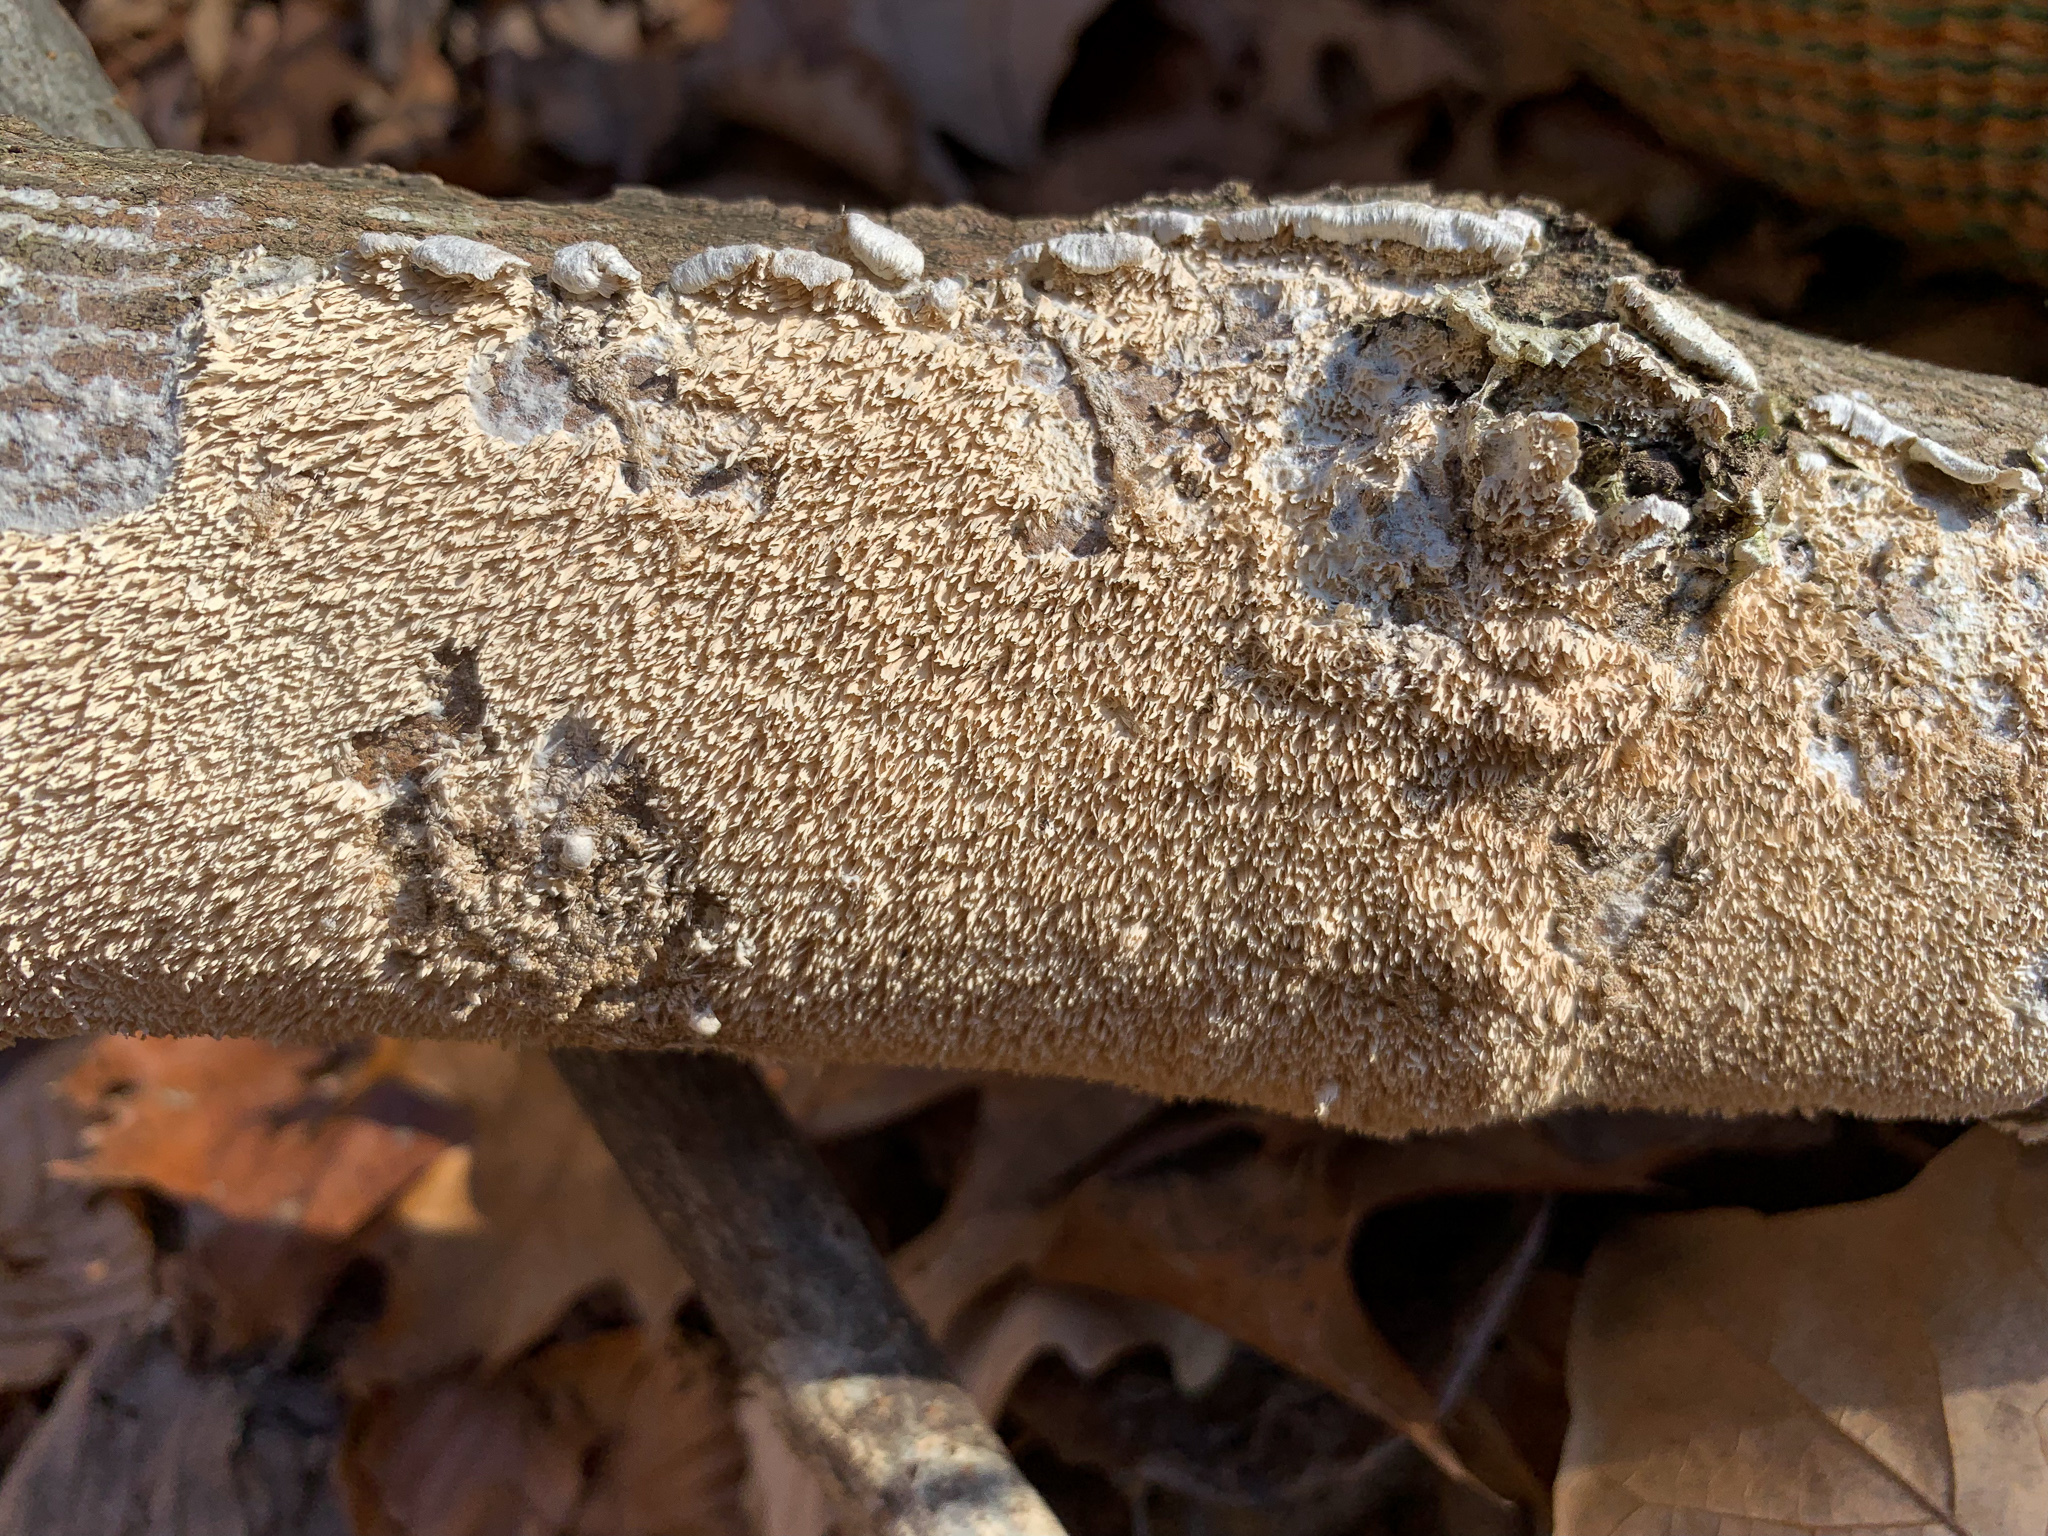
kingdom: Fungi
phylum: Basidiomycota
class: Agaricomycetes
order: Polyporales
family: Irpicaceae
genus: Irpex
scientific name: Irpex lacteus
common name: Milk-white toothed polypore
